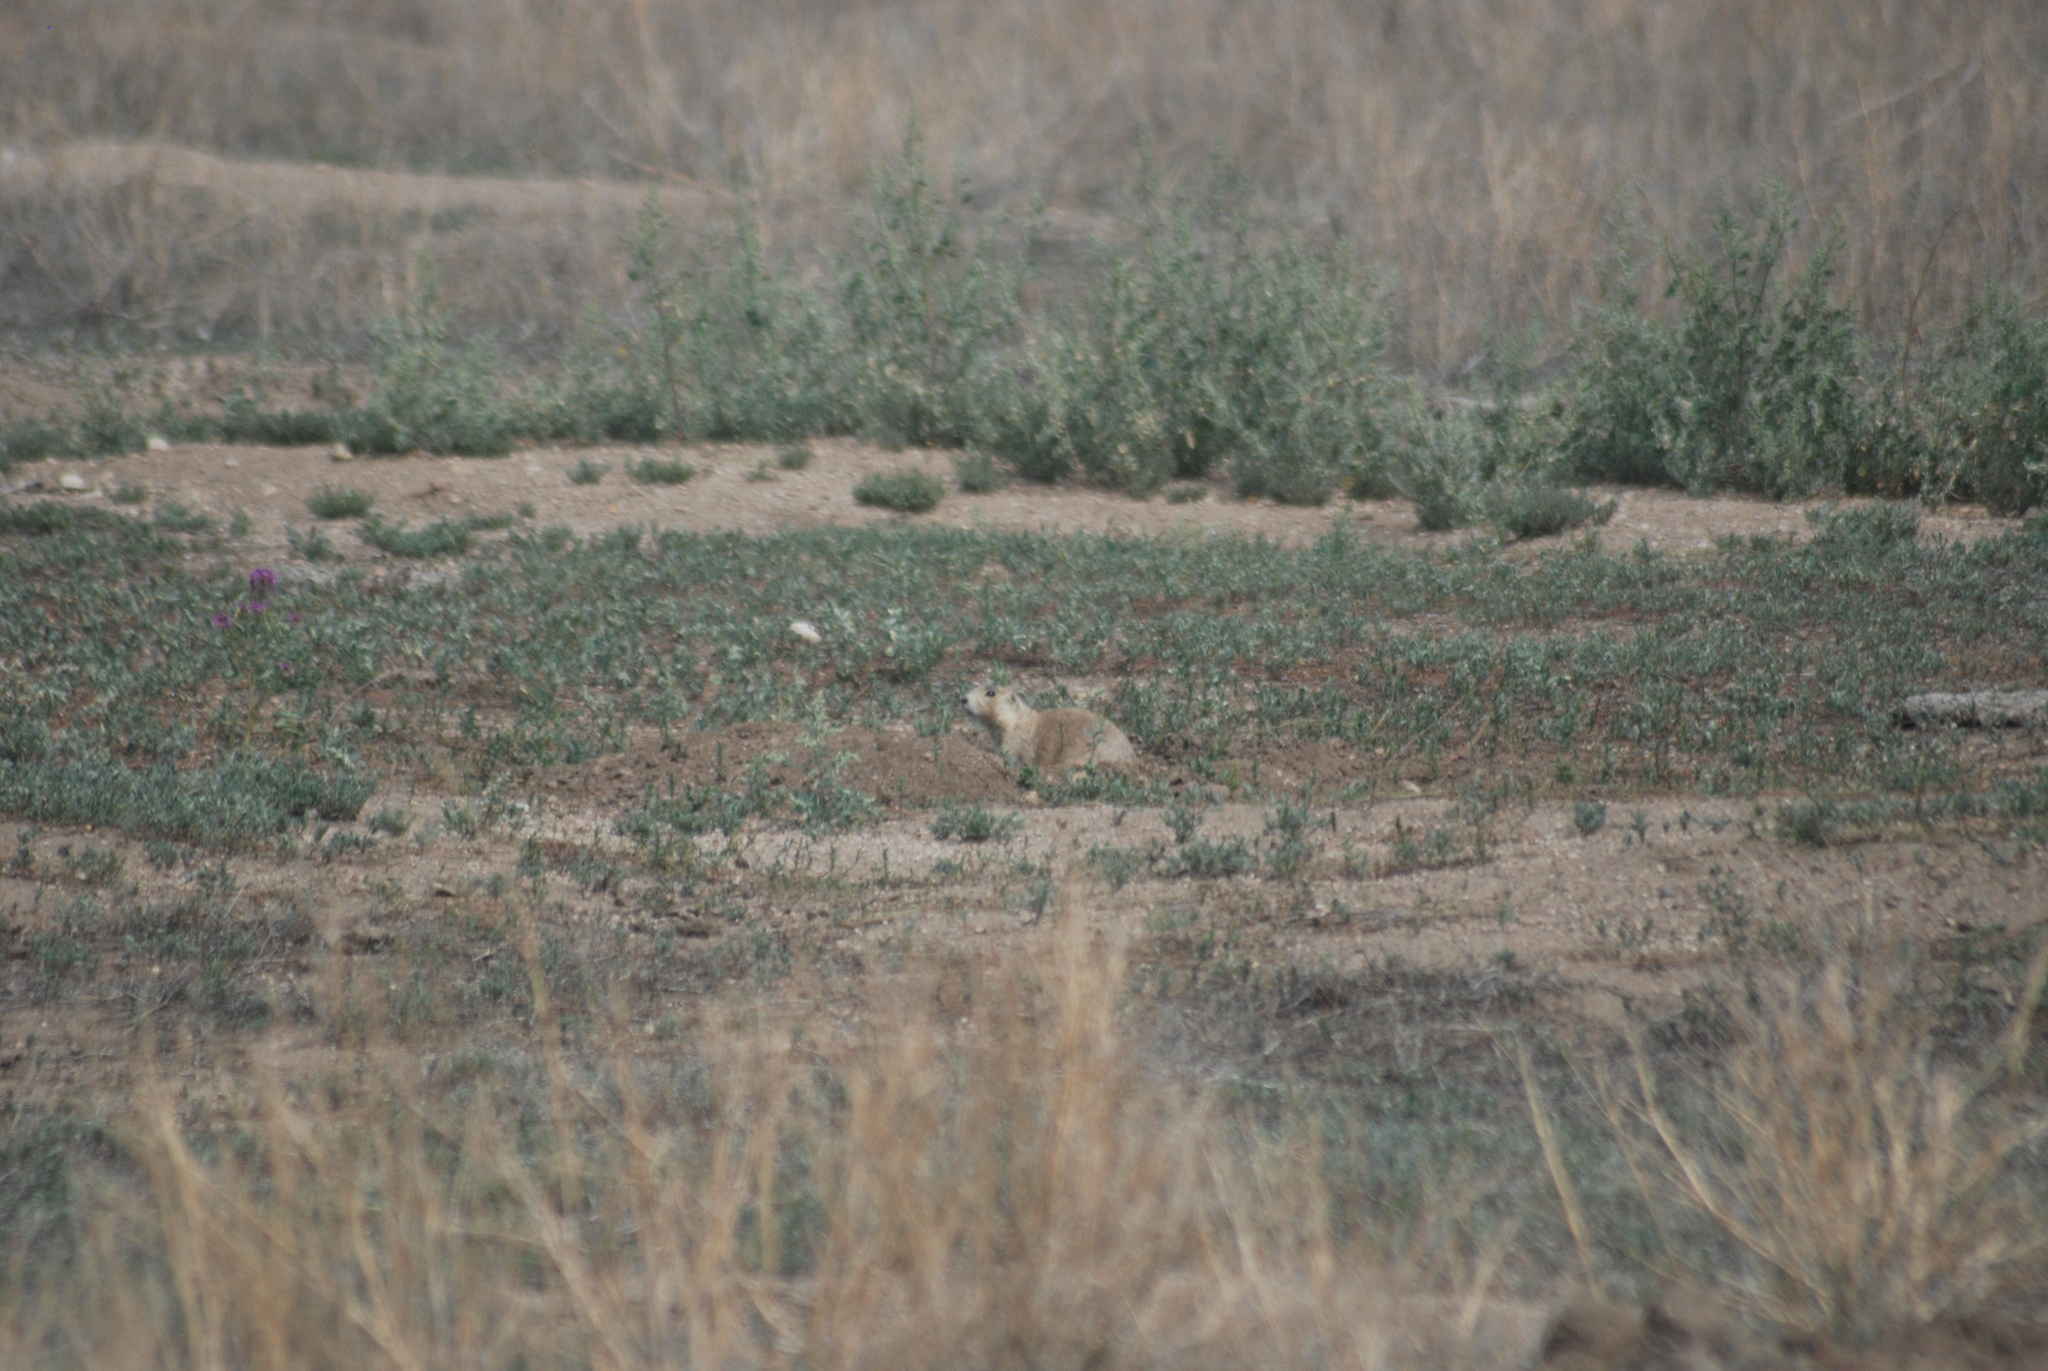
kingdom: Animalia
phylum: Chordata
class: Mammalia
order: Rodentia
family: Sciuridae
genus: Cynomys
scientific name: Cynomys gunnisoni
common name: Gunnison's prairie dog
